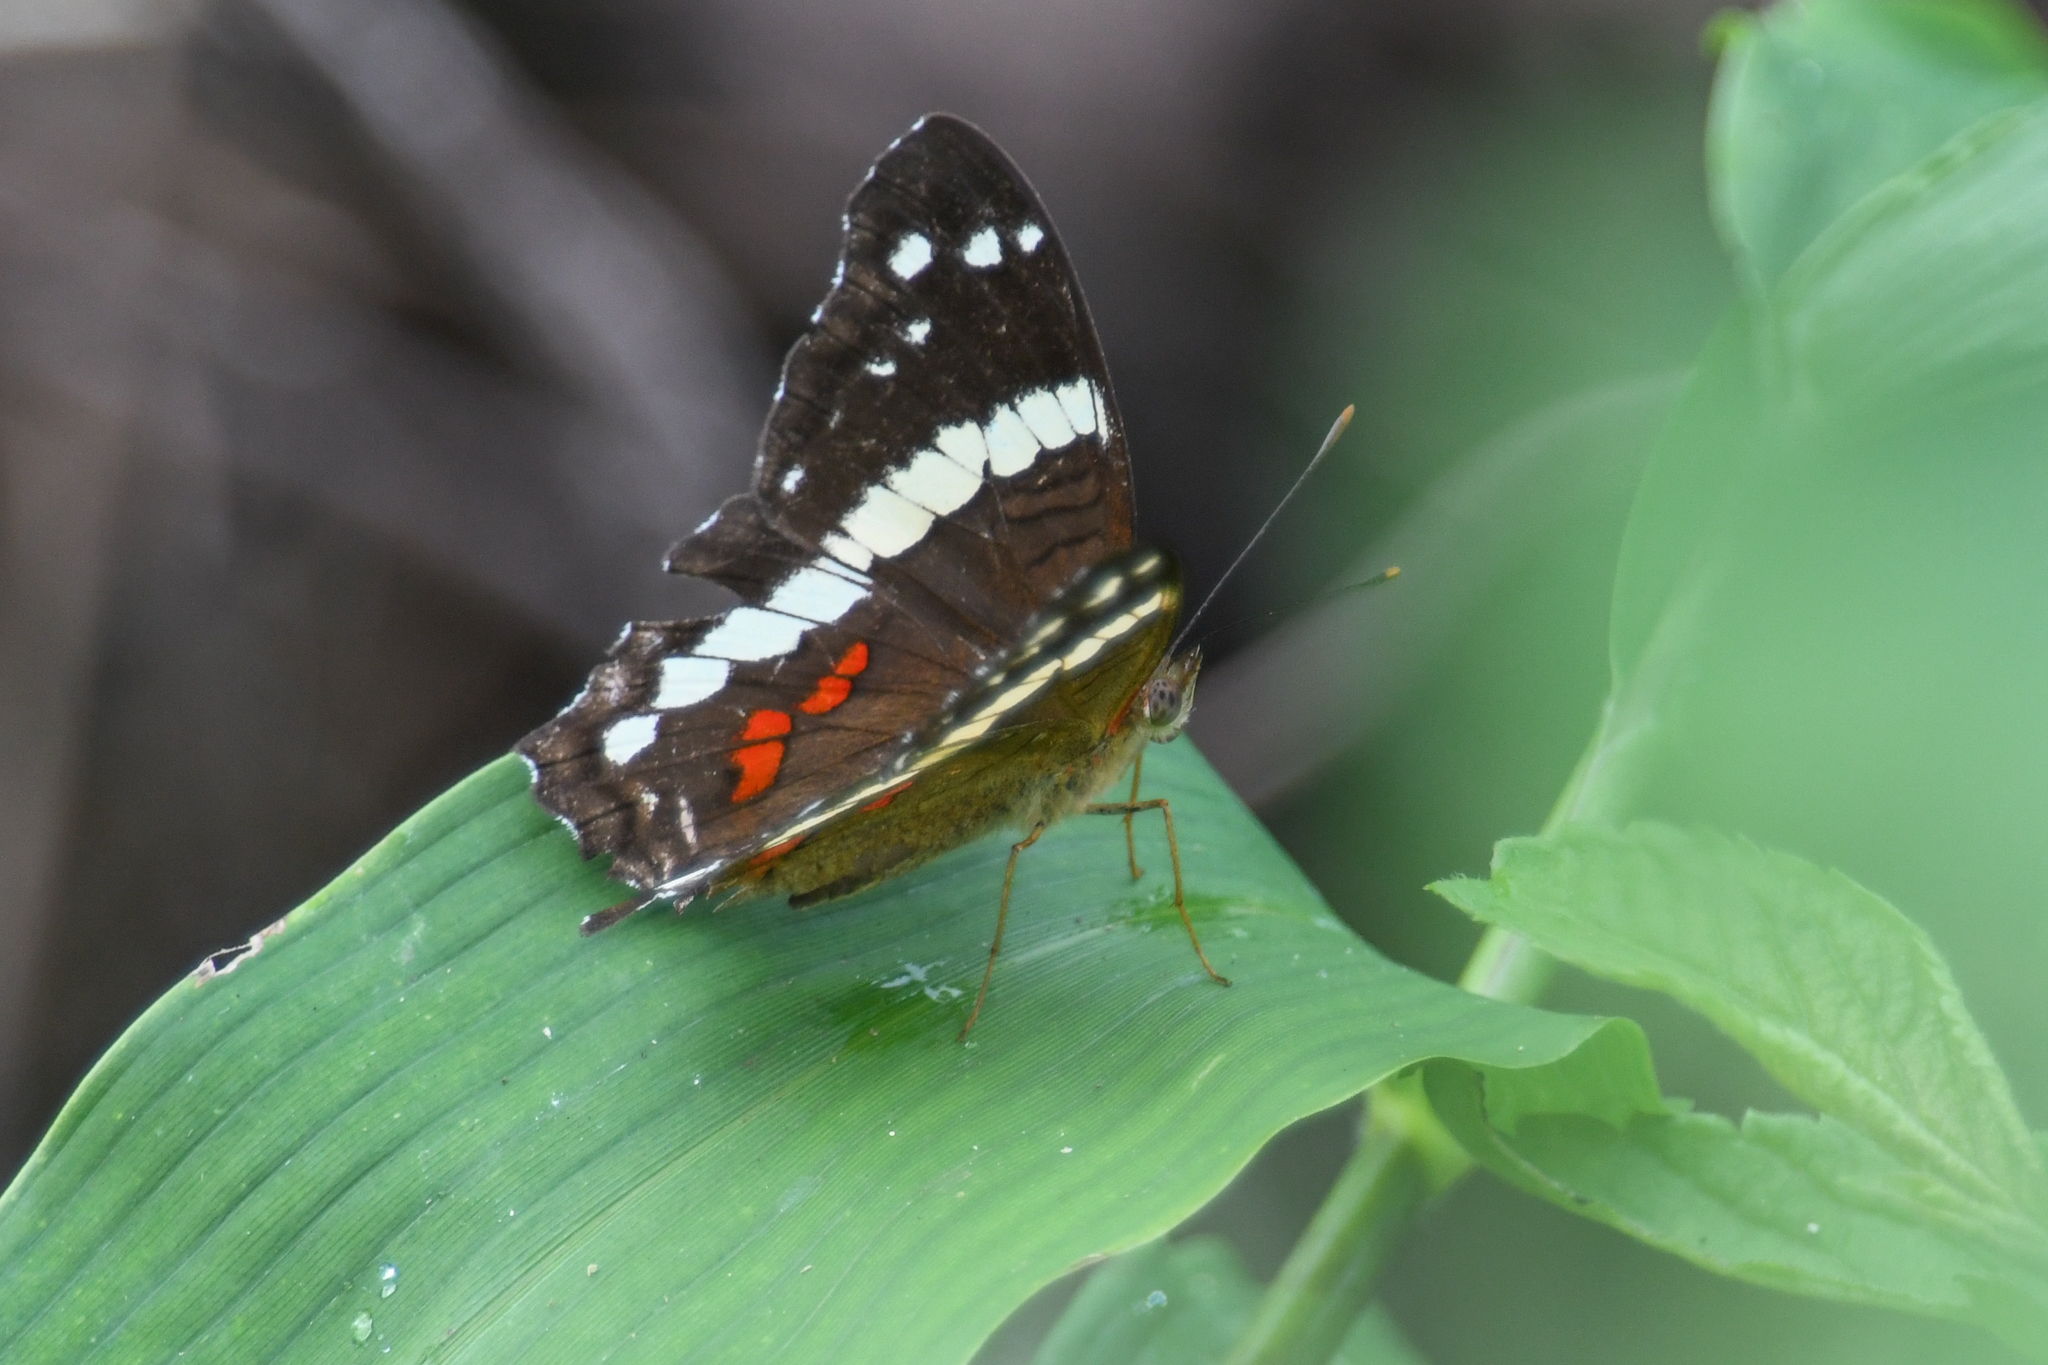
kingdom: Animalia
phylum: Arthropoda
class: Insecta
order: Lepidoptera
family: Nymphalidae
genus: Anartia
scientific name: Anartia fatima
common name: Banded peacock
